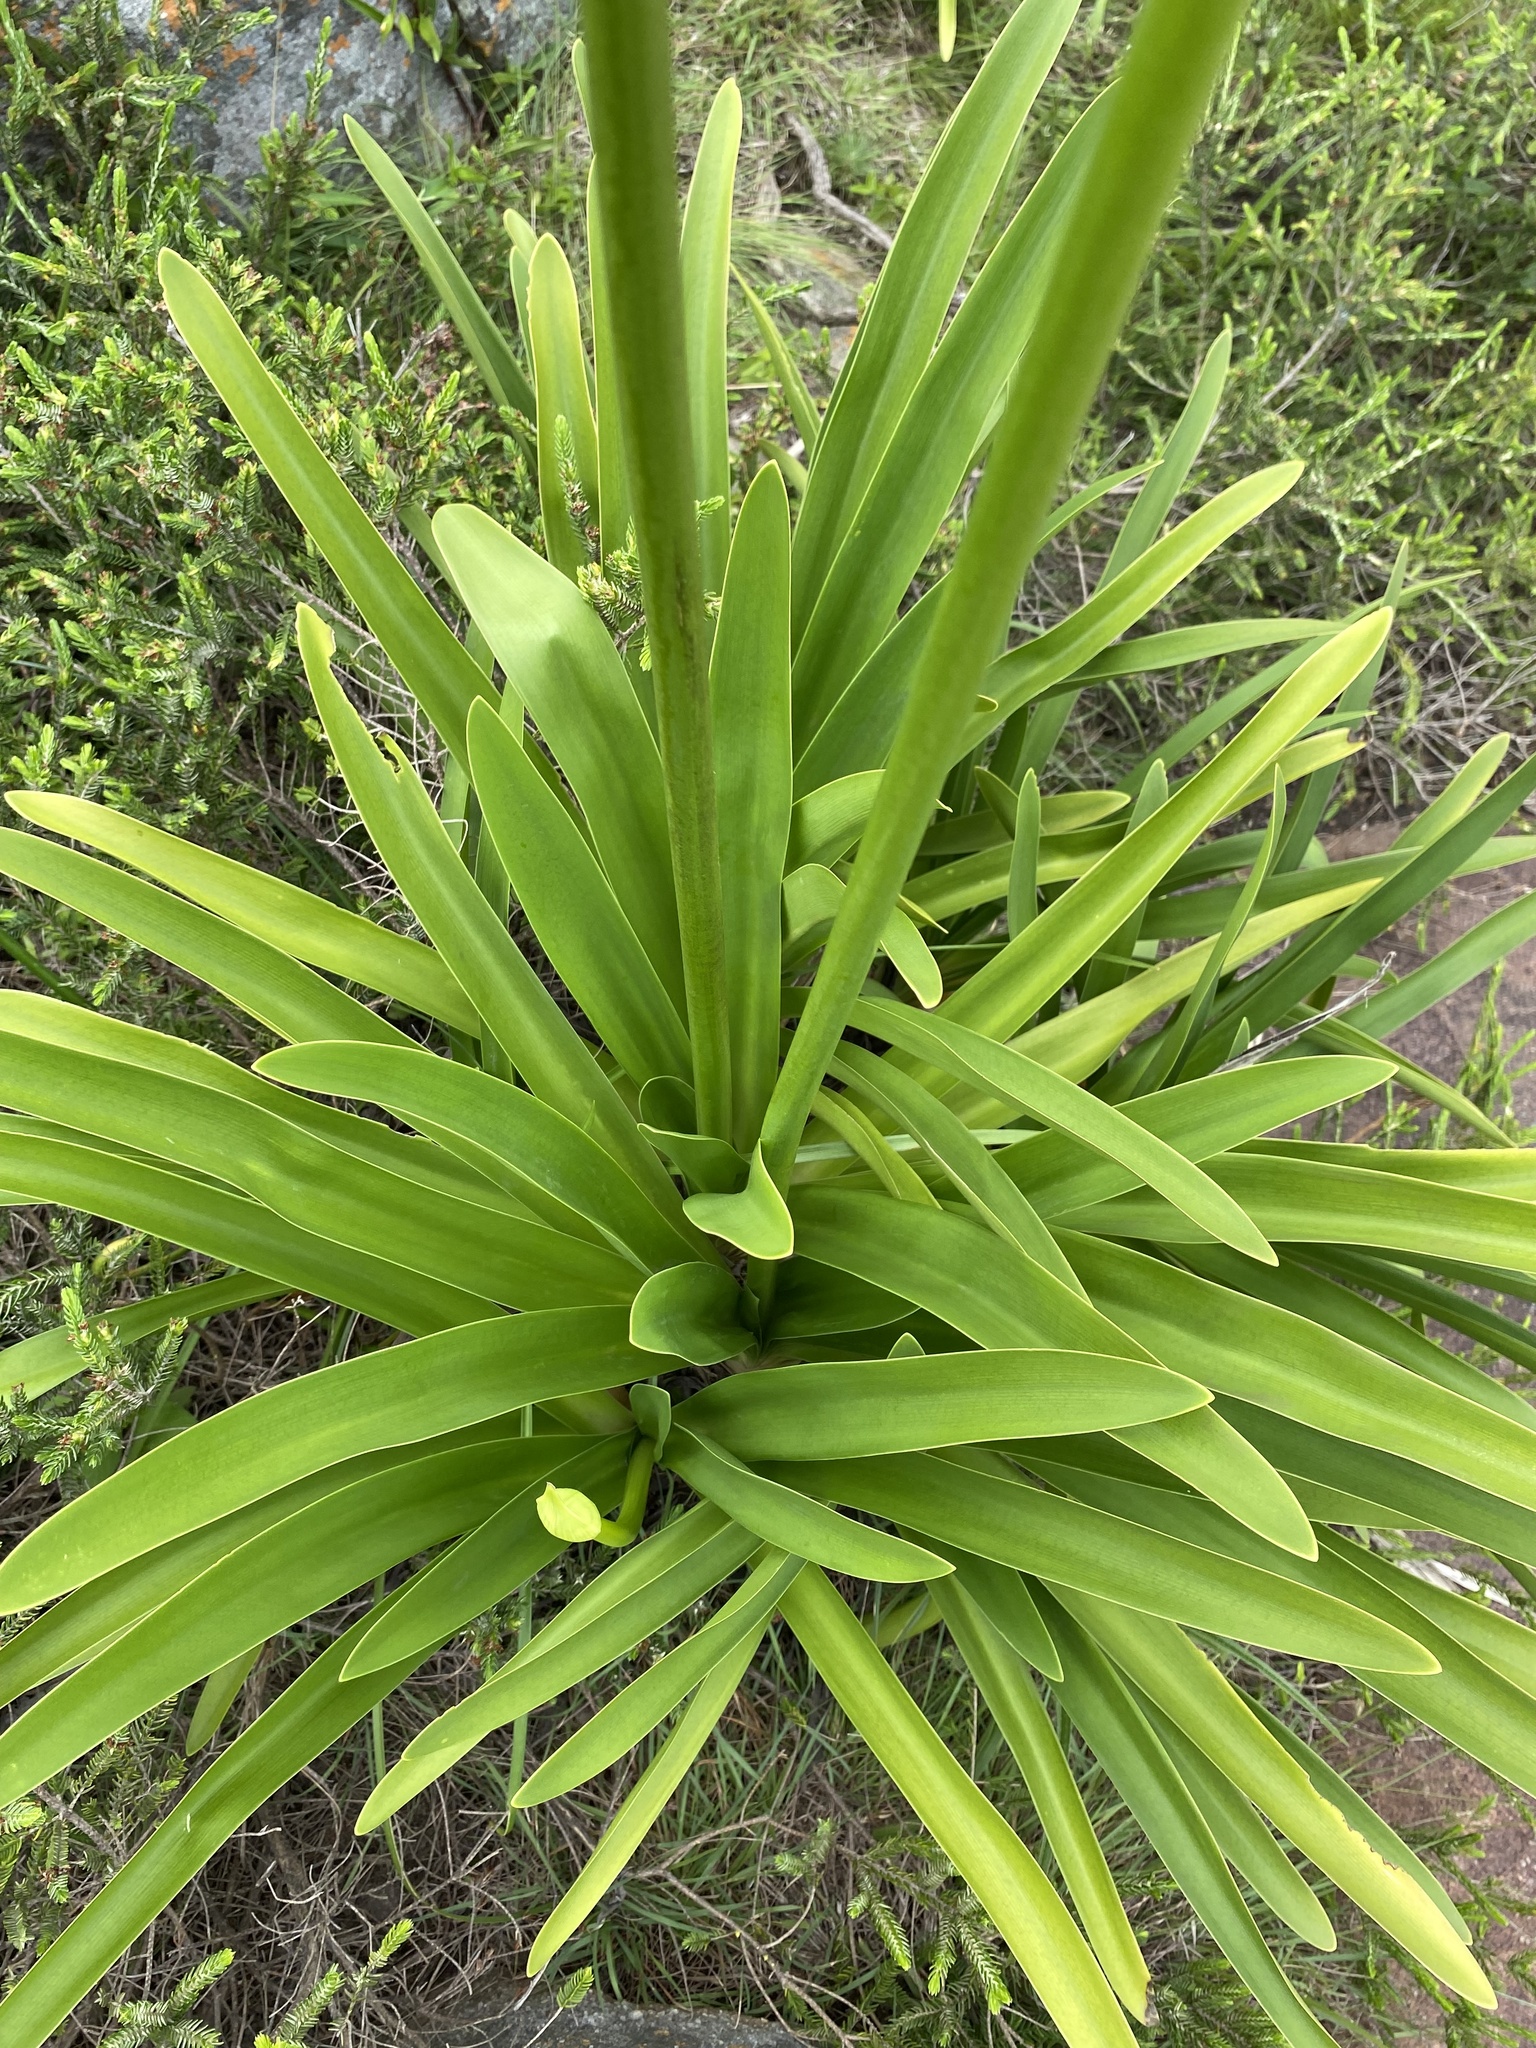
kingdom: Plantae
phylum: Tracheophyta
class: Liliopsida
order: Asparagales
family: Amaryllidaceae
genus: Agapanthus
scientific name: Agapanthus pondoensis
